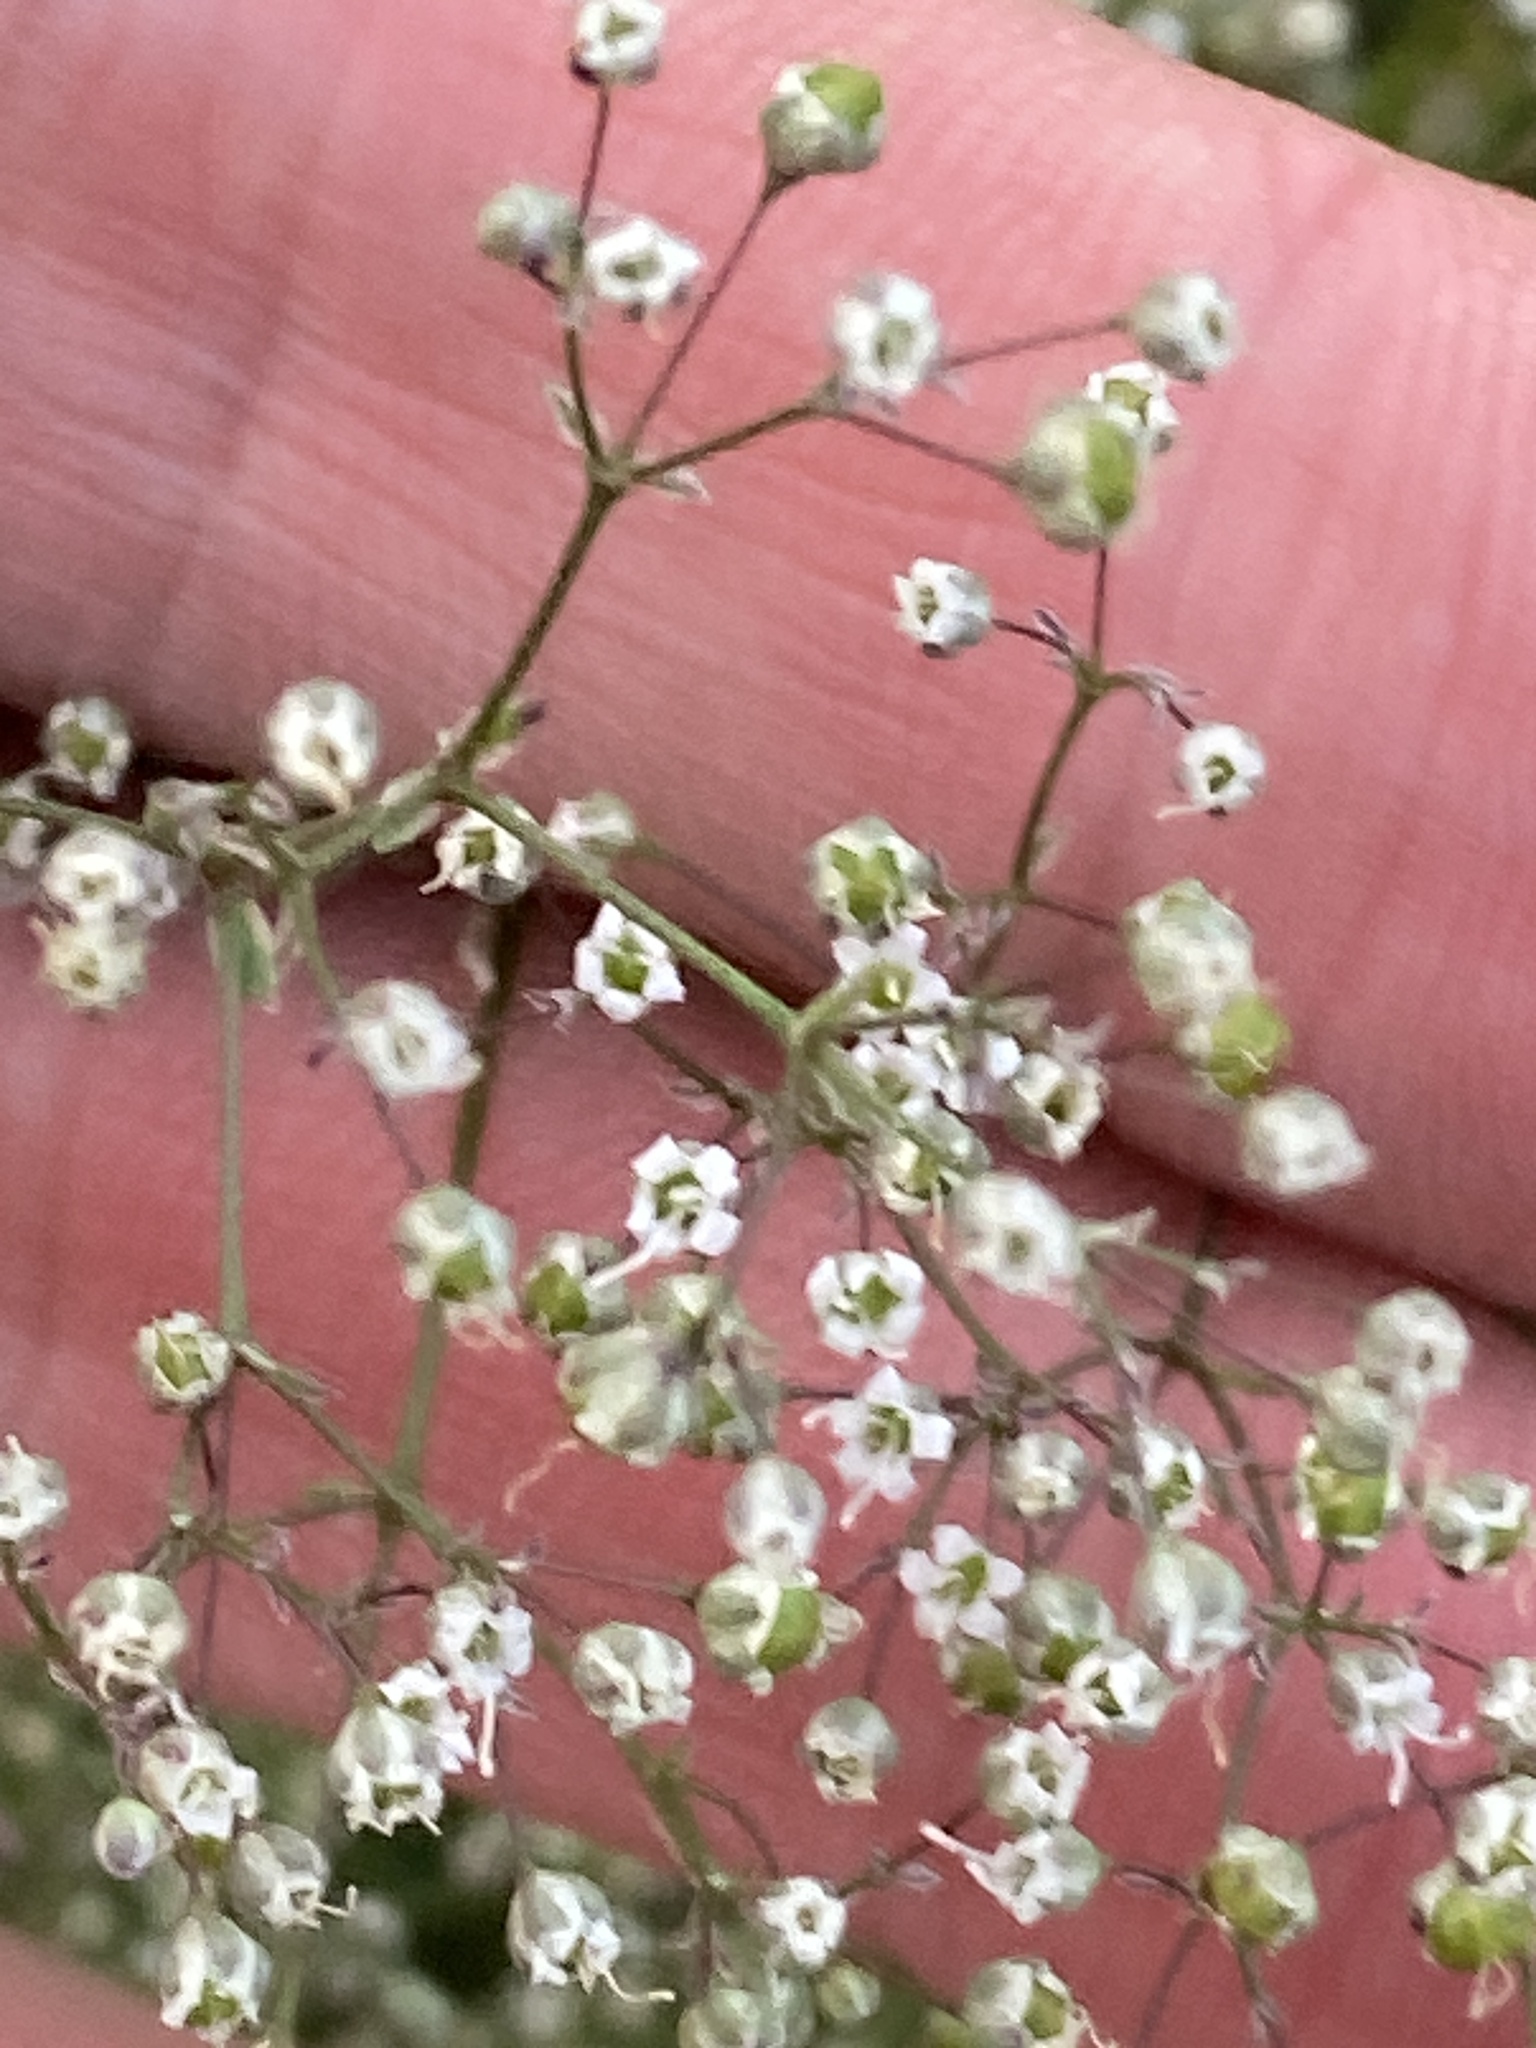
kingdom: Plantae
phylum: Tracheophyta
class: Magnoliopsida
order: Caryophyllales
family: Caryophyllaceae
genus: Gypsophila
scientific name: Gypsophila paniculata
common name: Baby's-breath
